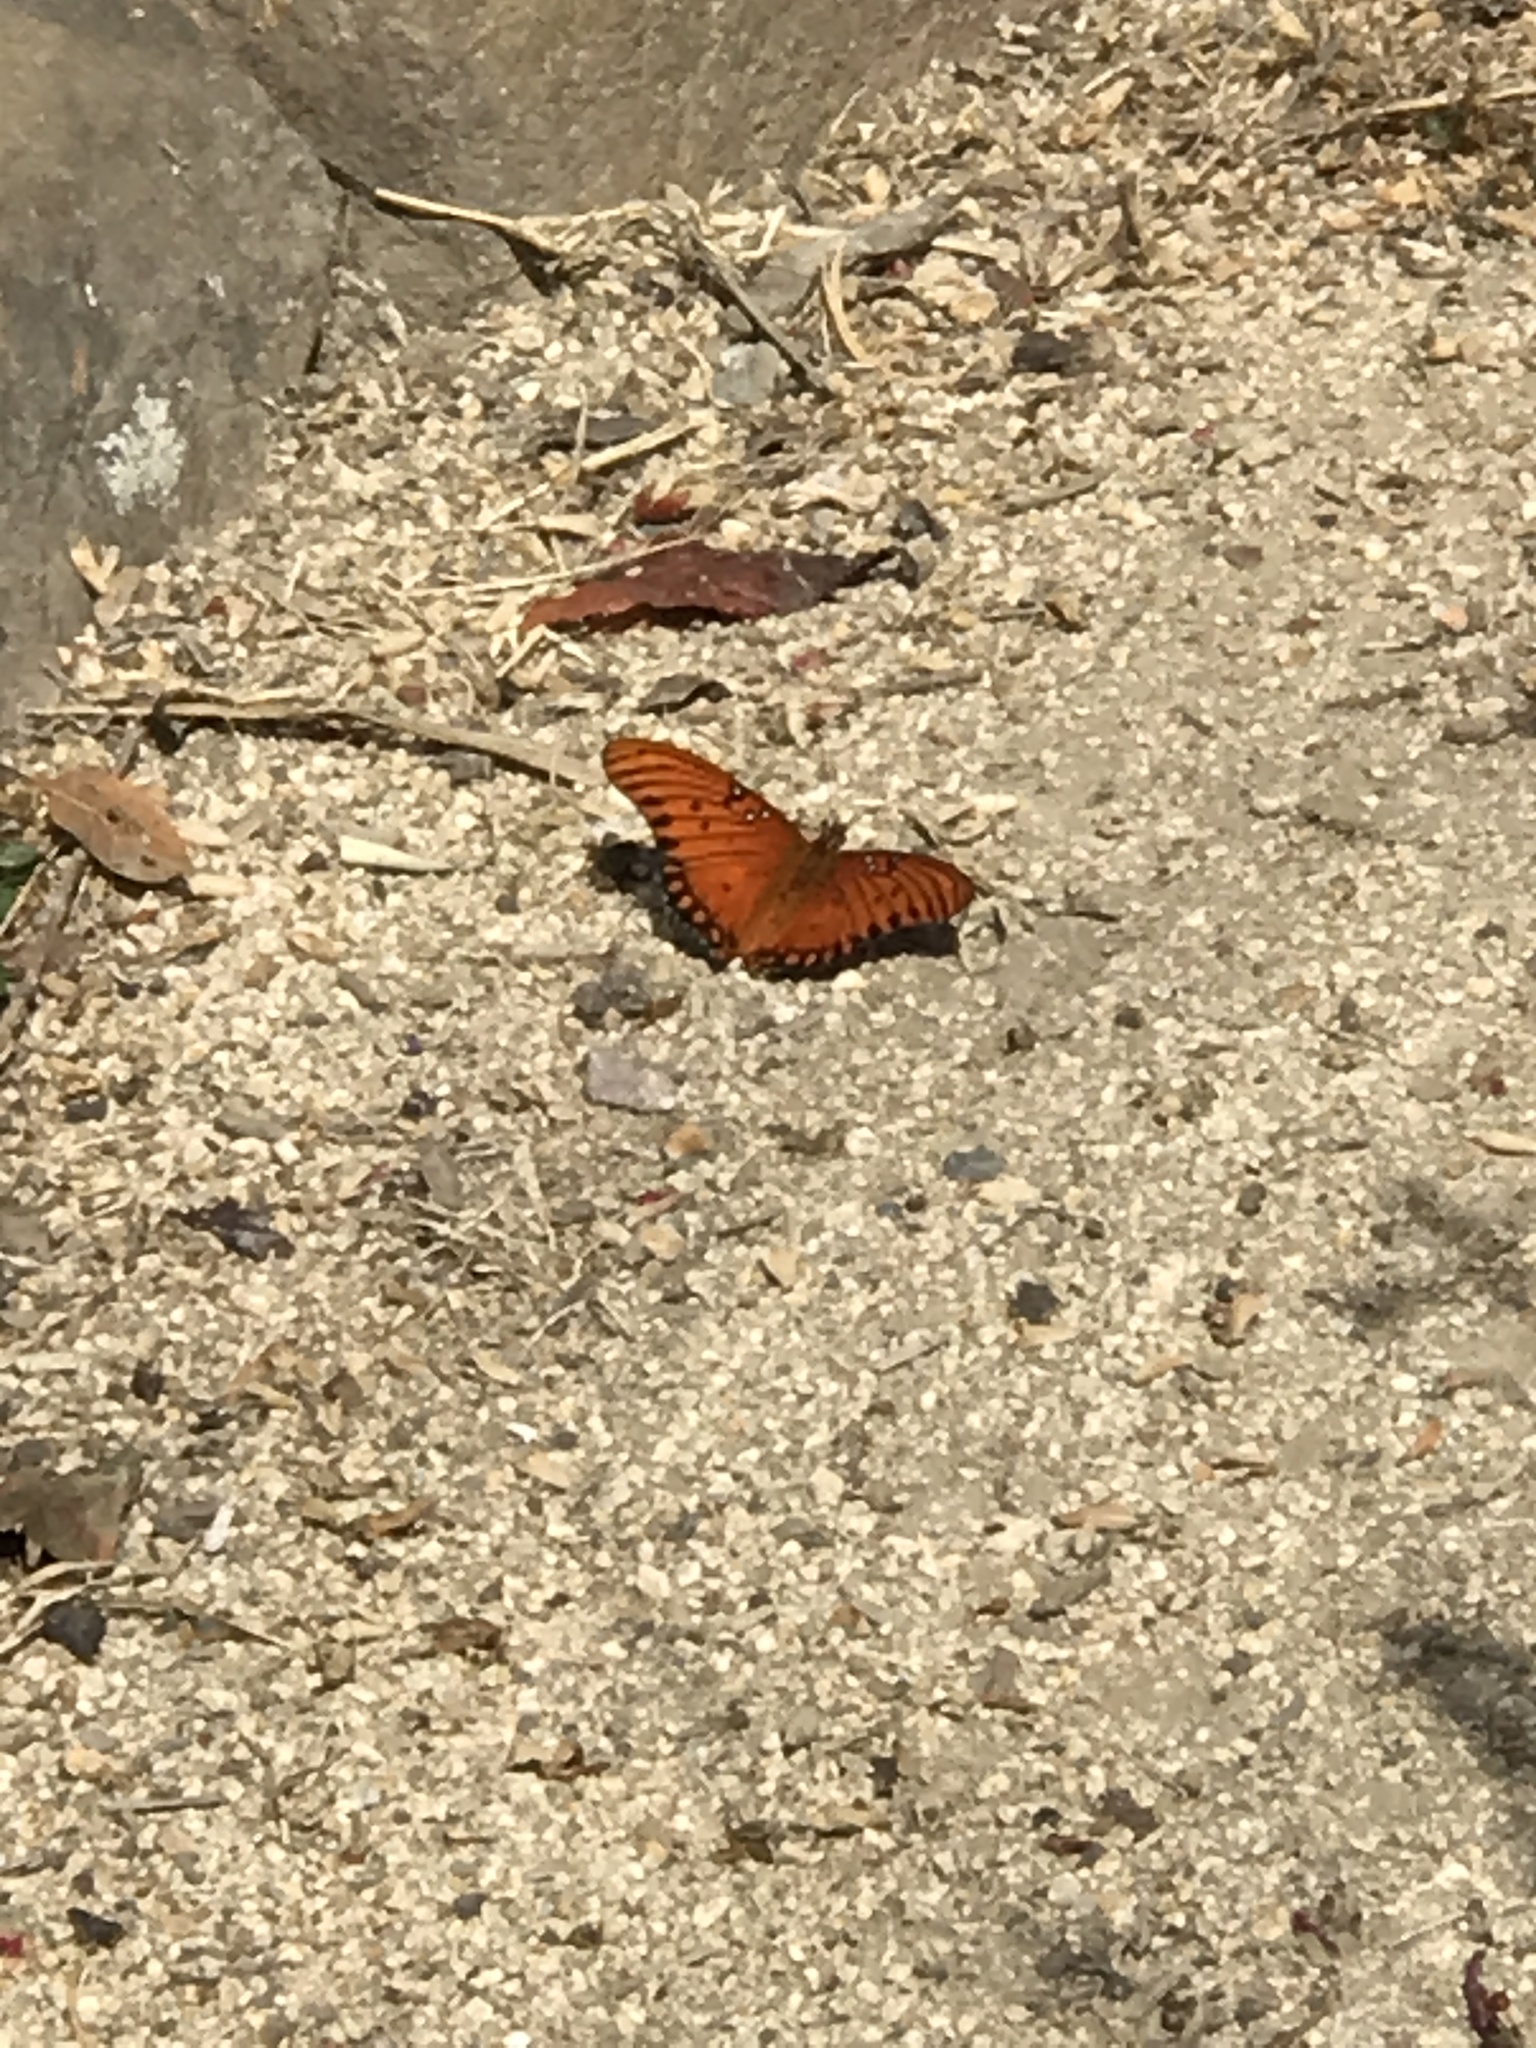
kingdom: Animalia
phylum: Arthropoda
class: Insecta
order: Lepidoptera
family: Nymphalidae
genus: Dione
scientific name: Dione vanillae
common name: Gulf fritillary
